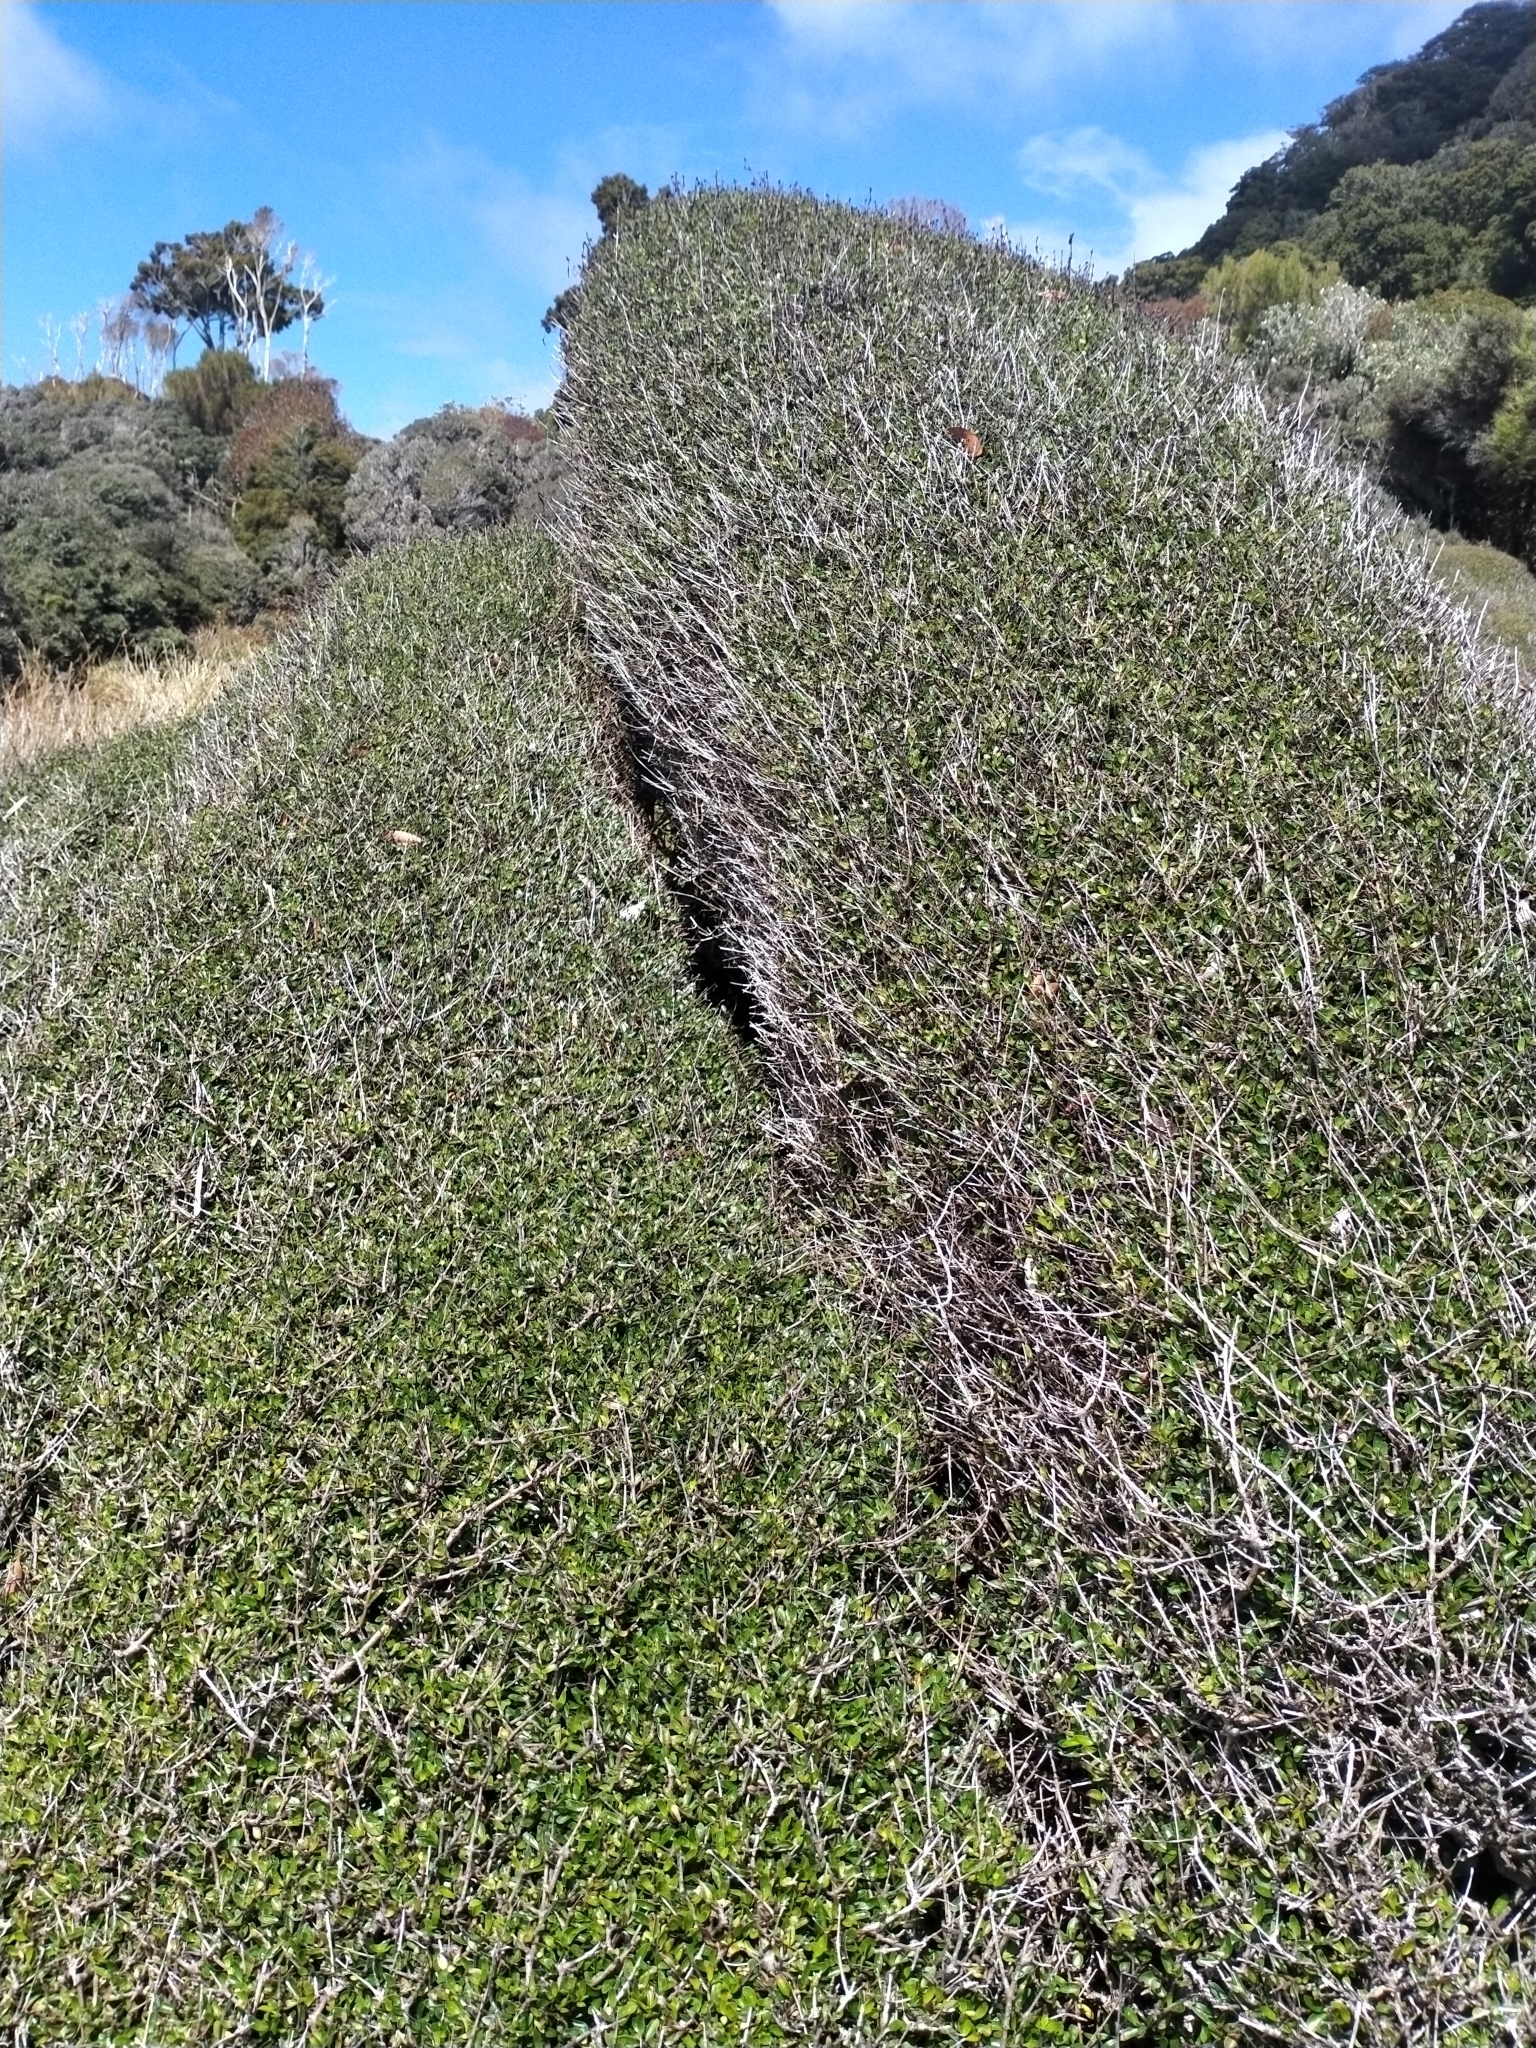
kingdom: Plantae
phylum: Tracheophyta
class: Magnoliopsida
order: Gentianales
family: Rubiaceae
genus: Coprosma
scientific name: Coprosma propinqua
